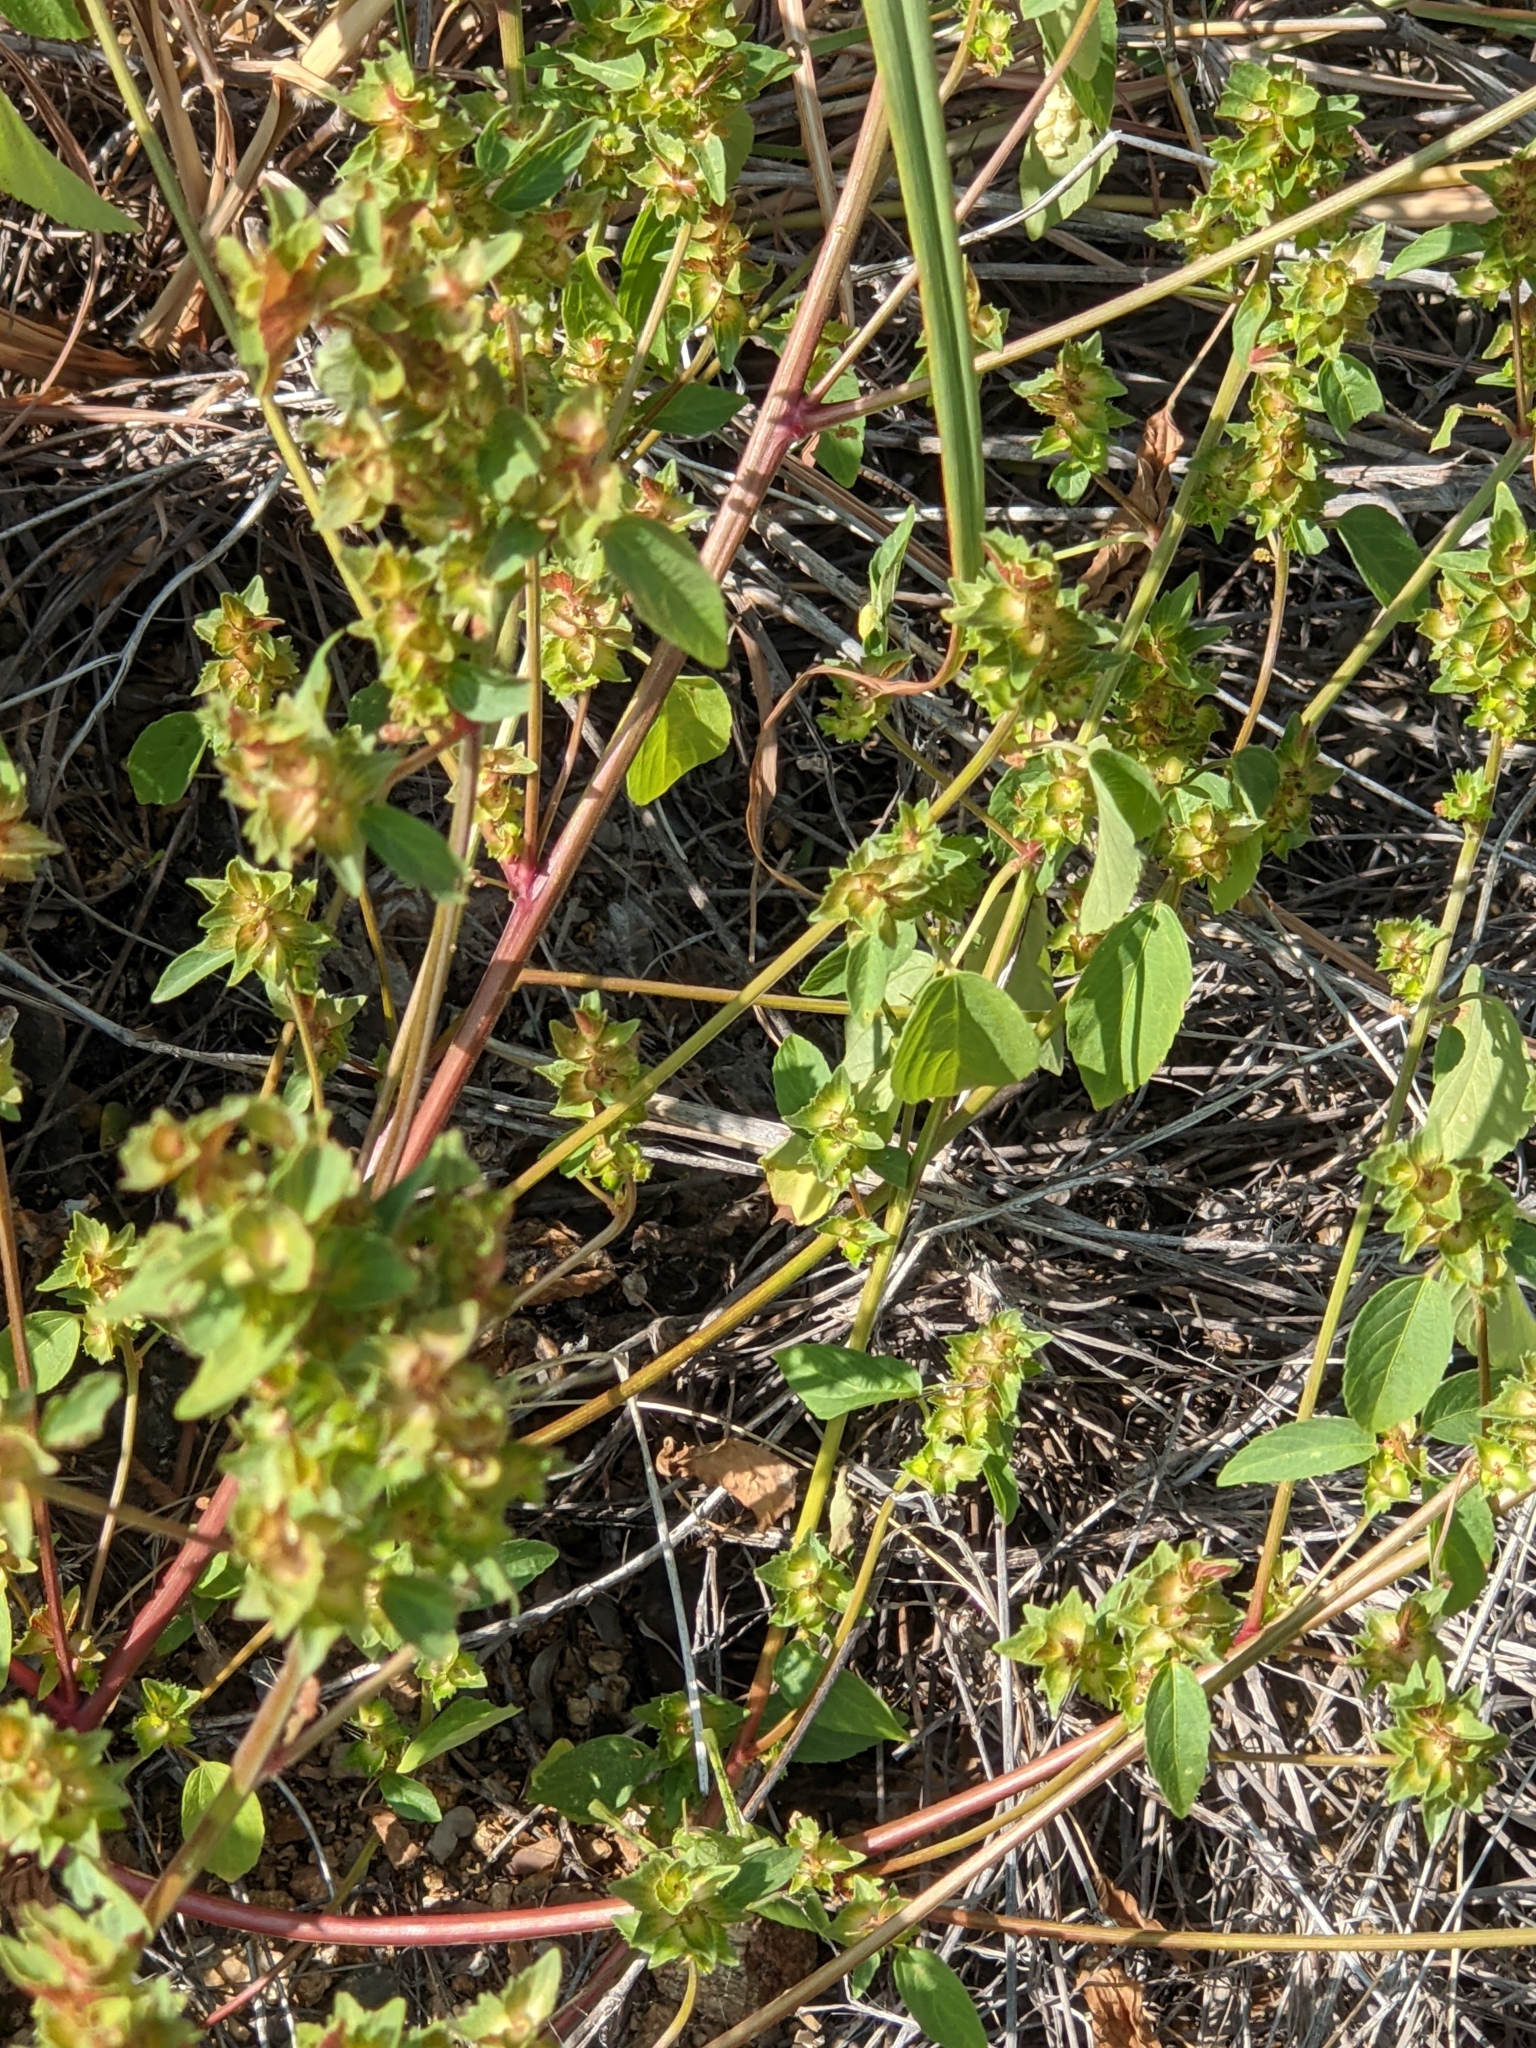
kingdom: Plantae
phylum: Tracheophyta
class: Magnoliopsida
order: Malpighiales
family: Euphorbiaceae
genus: Acalypha
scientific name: Acalypha neomexicana
